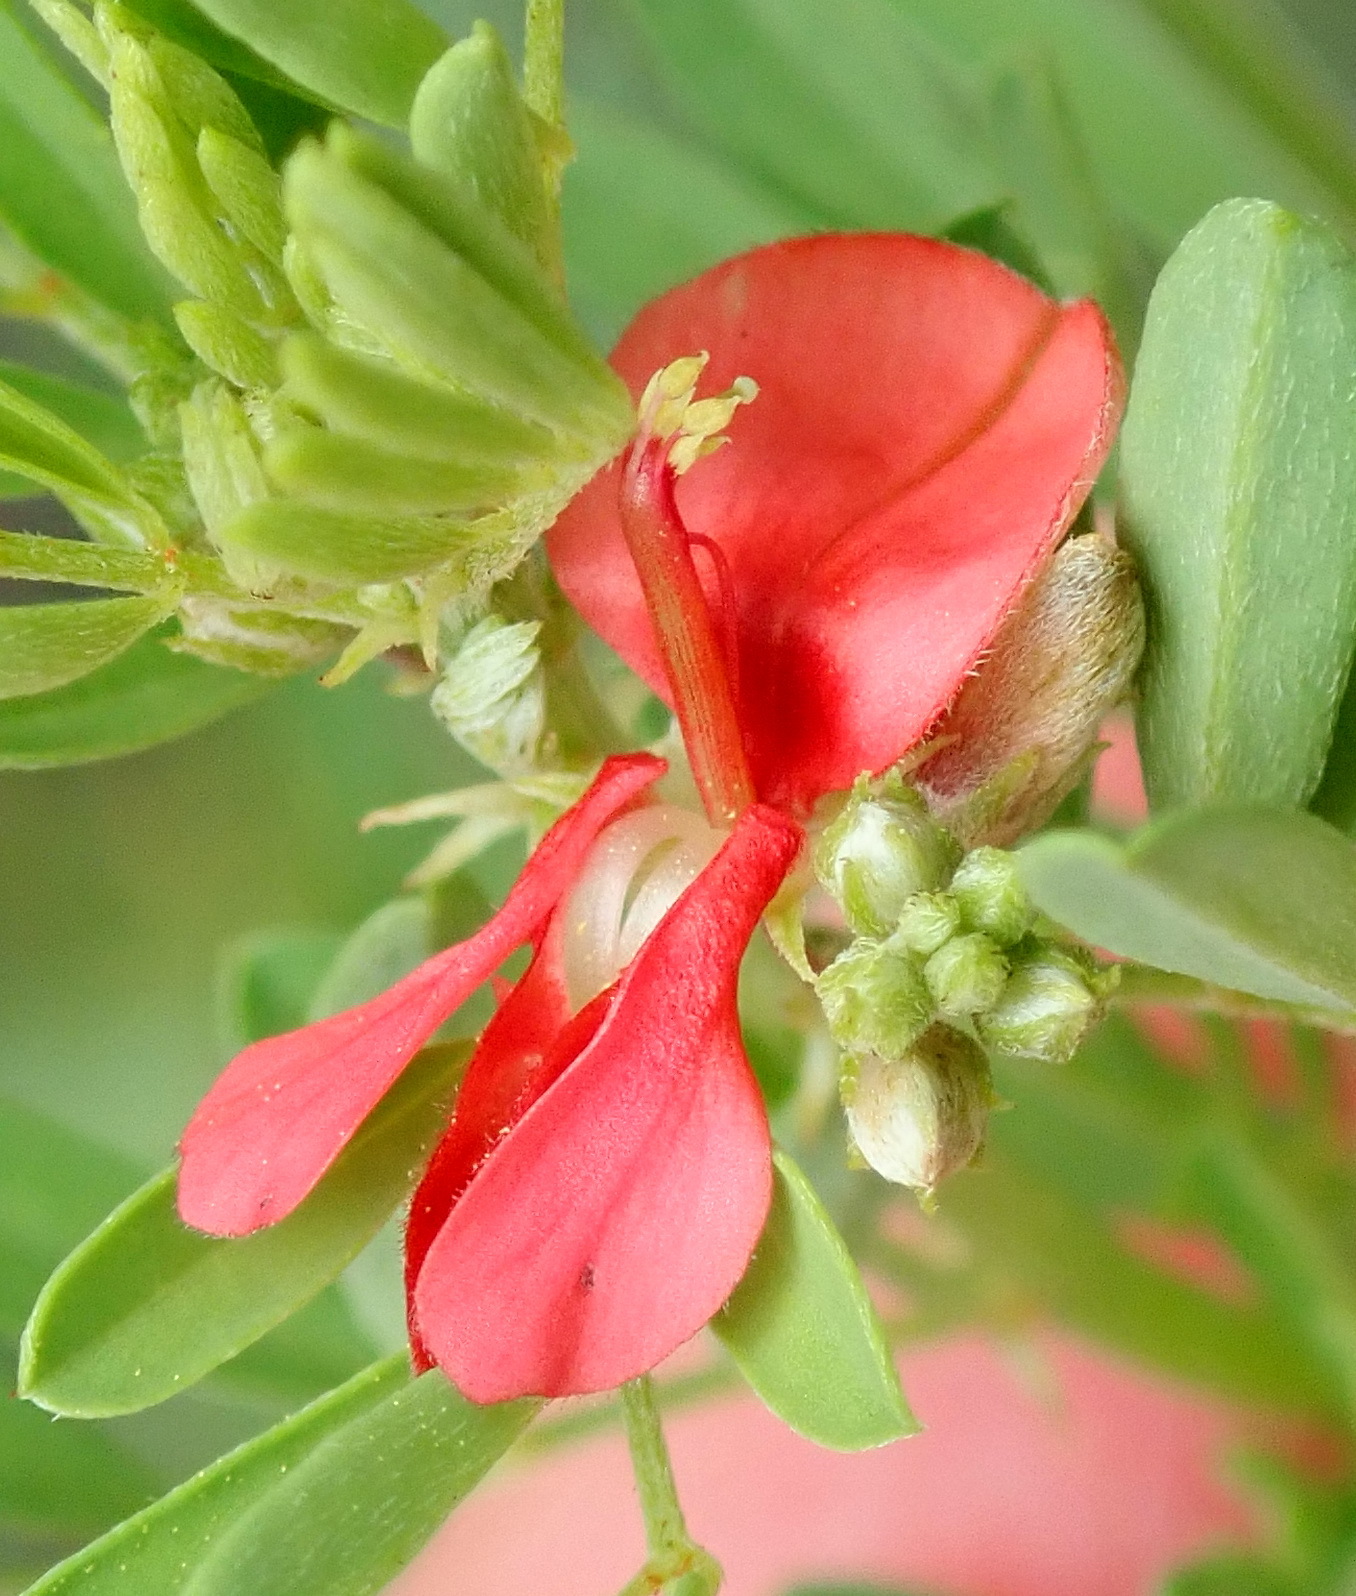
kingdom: Plantae
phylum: Tracheophyta
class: Magnoliopsida
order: Fabales
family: Fabaceae
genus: Indigofera
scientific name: Indigofera stricta
